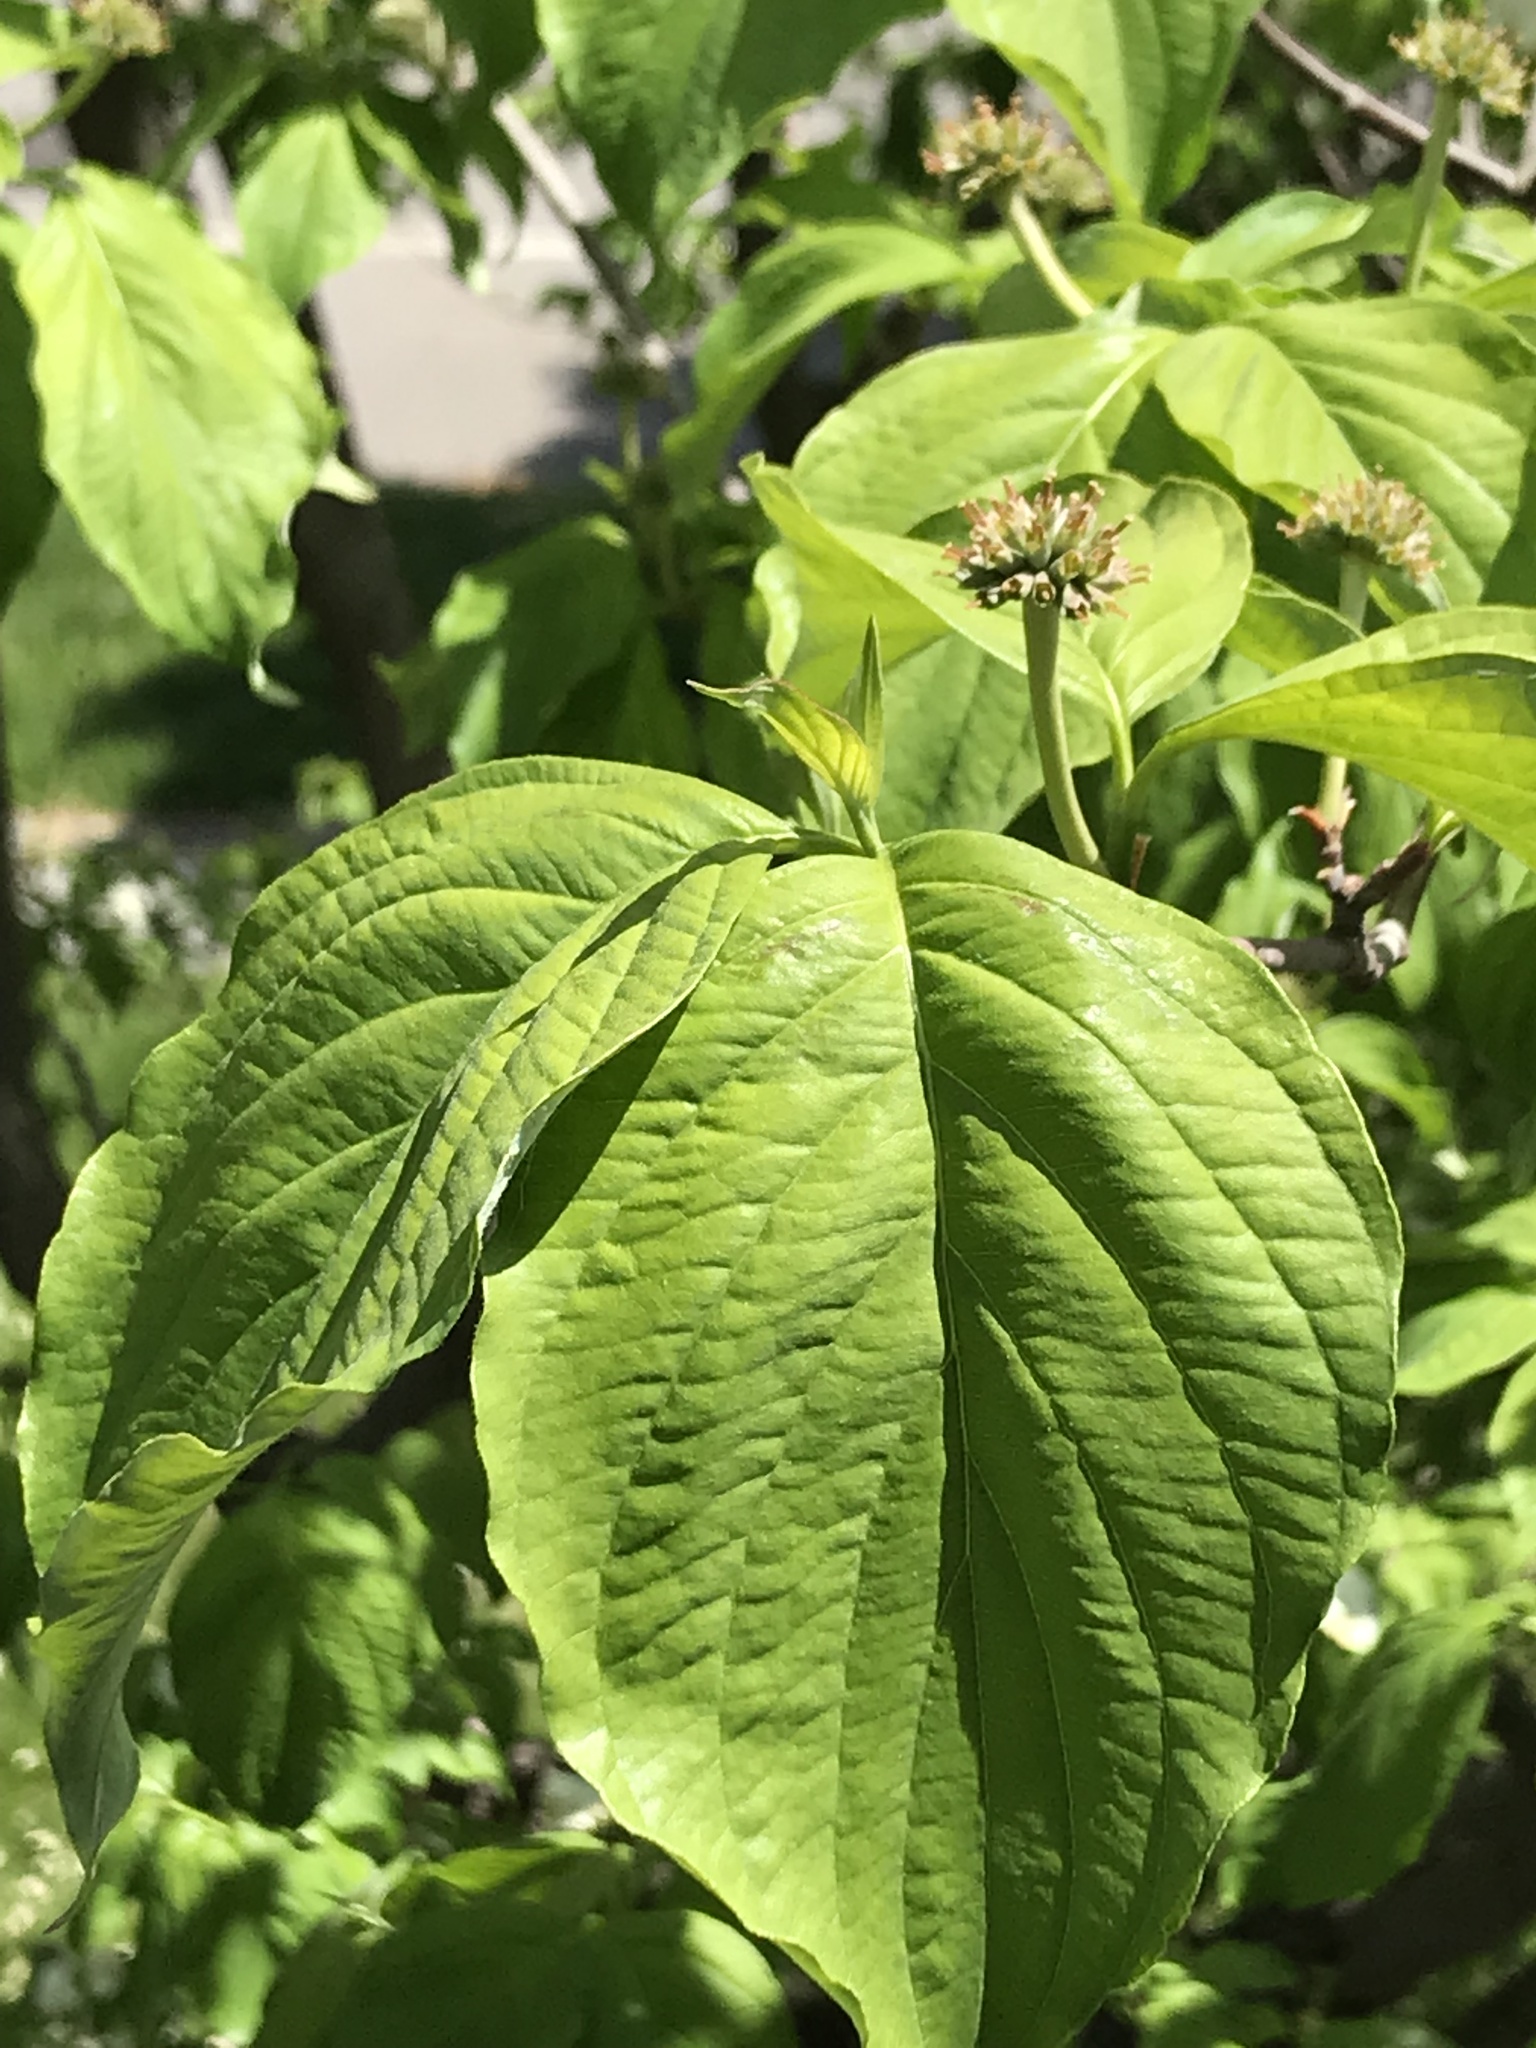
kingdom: Plantae
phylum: Tracheophyta
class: Magnoliopsida
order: Cornales
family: Cornaceae
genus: Cornus
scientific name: Cornus florida
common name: Flowering dogwood
